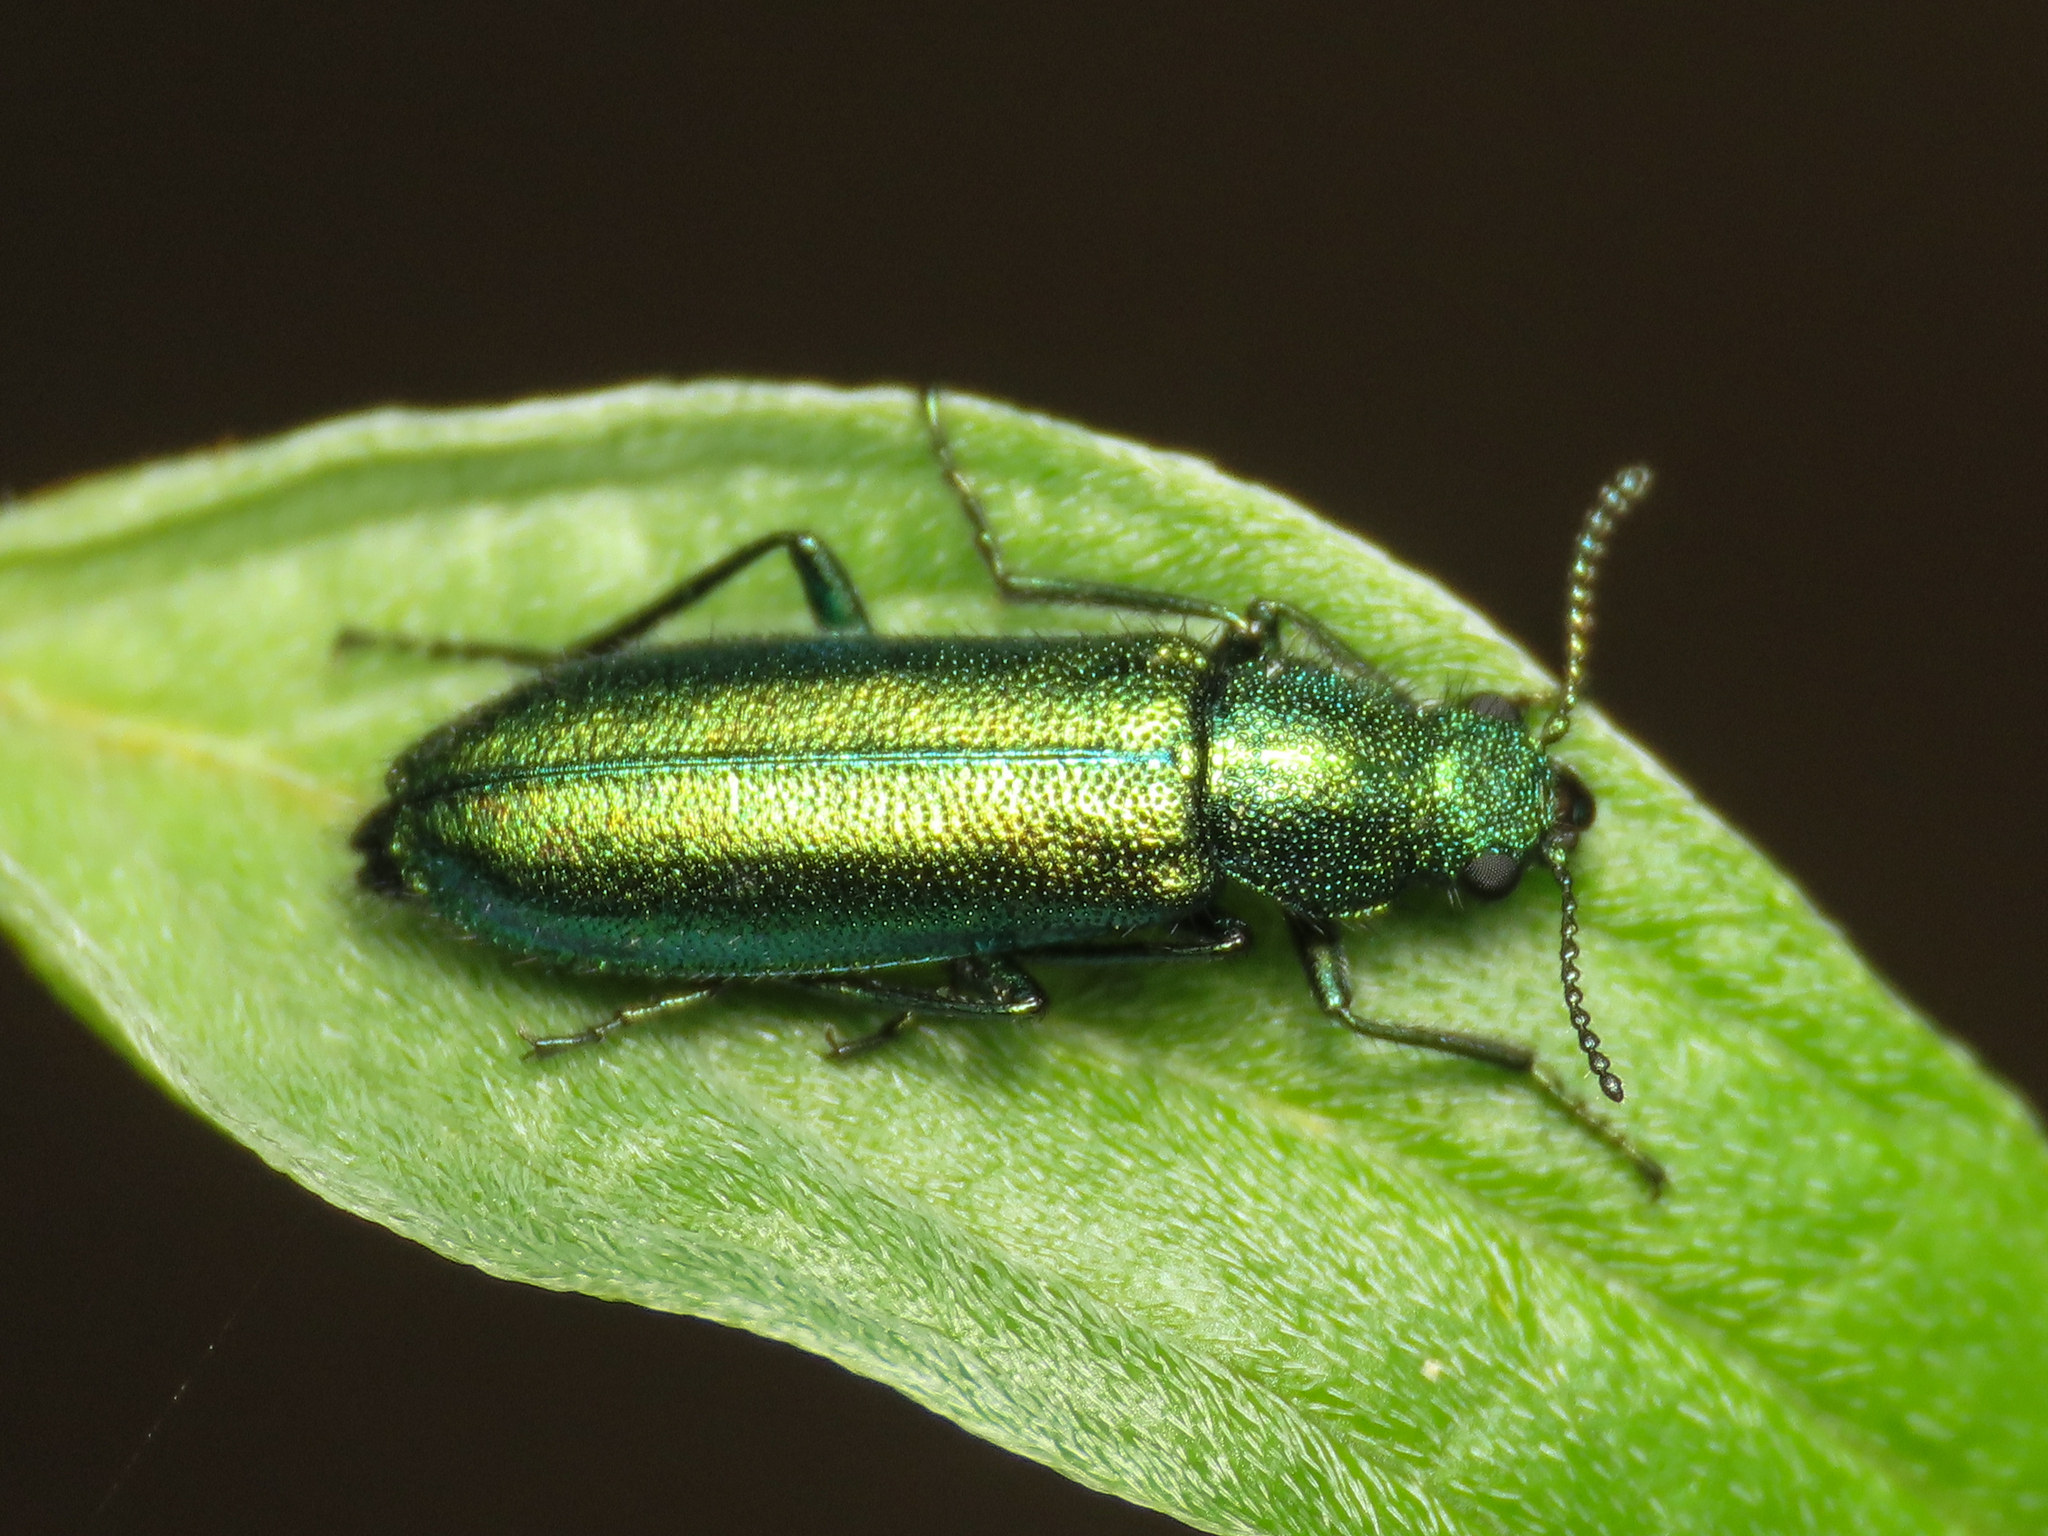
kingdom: Animalia
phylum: Arthropoda
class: Insecta
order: Coleoptera
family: Dasytidae
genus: Psilothrix
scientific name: Psilothrix viridicoerulea
